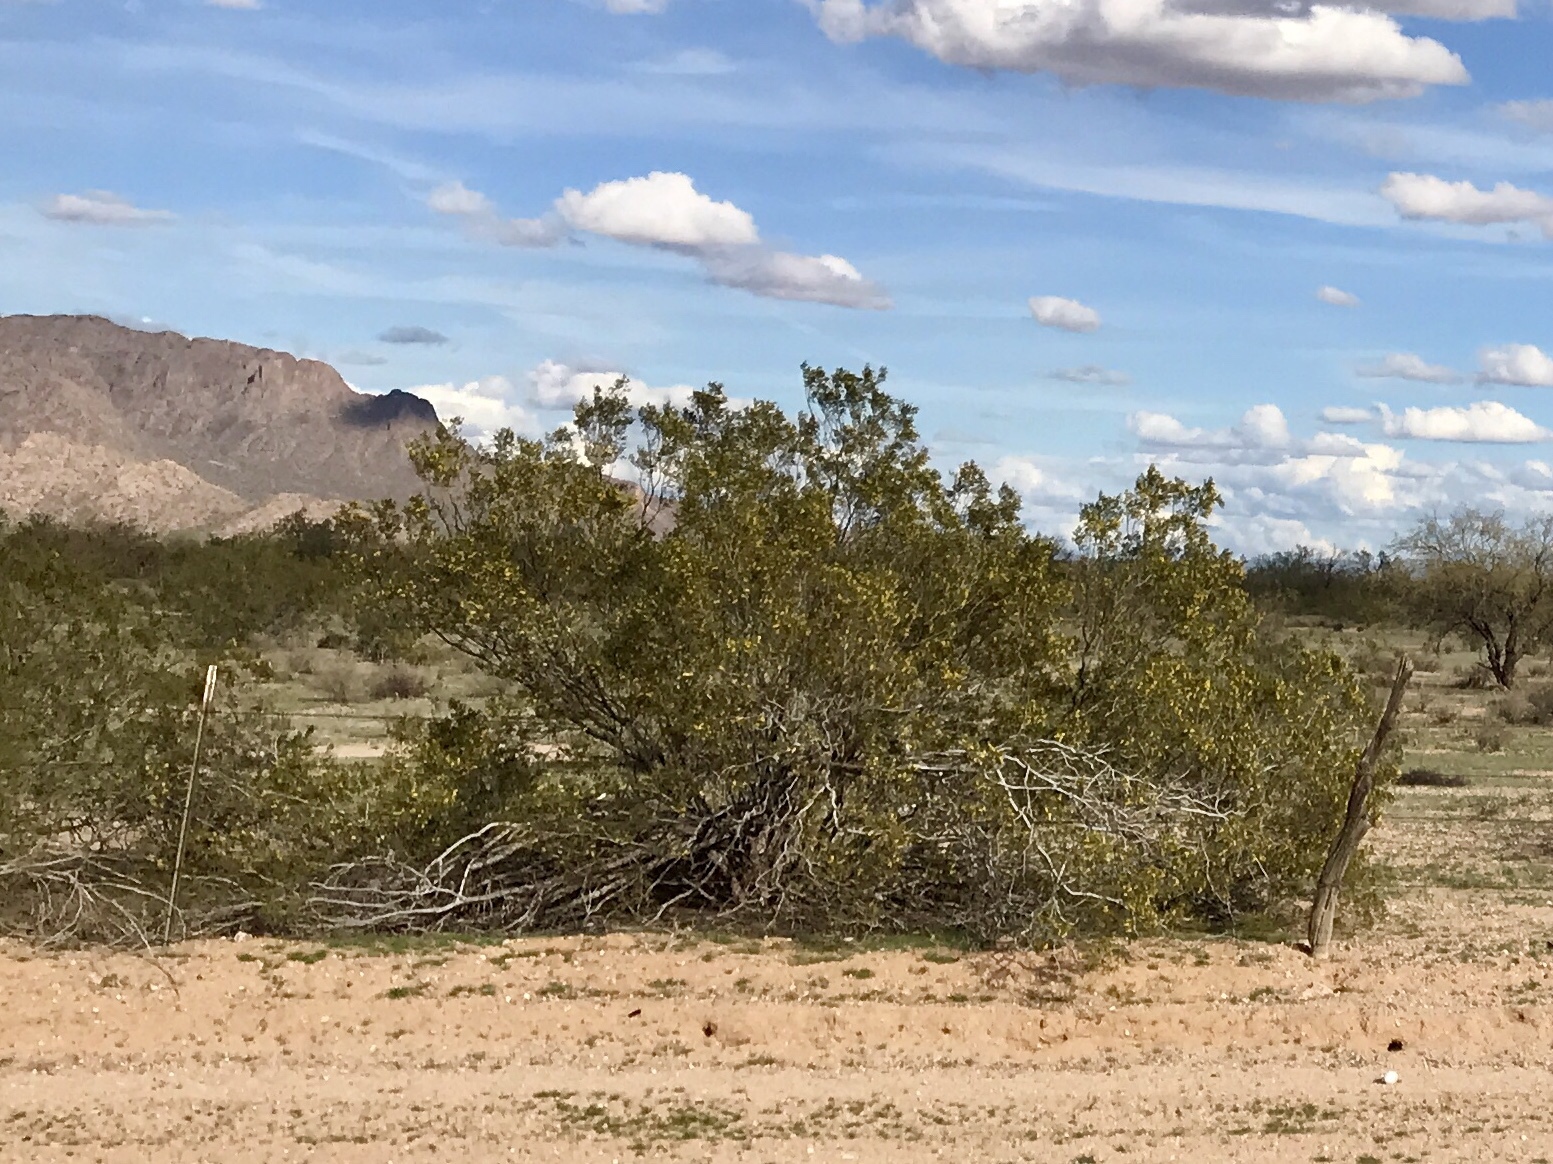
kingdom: Plantae
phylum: Tracheophyta
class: Magnoliopsida
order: Zygophyllales
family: Zygophyllaceae
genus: Larrea
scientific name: Larrea tridentata
